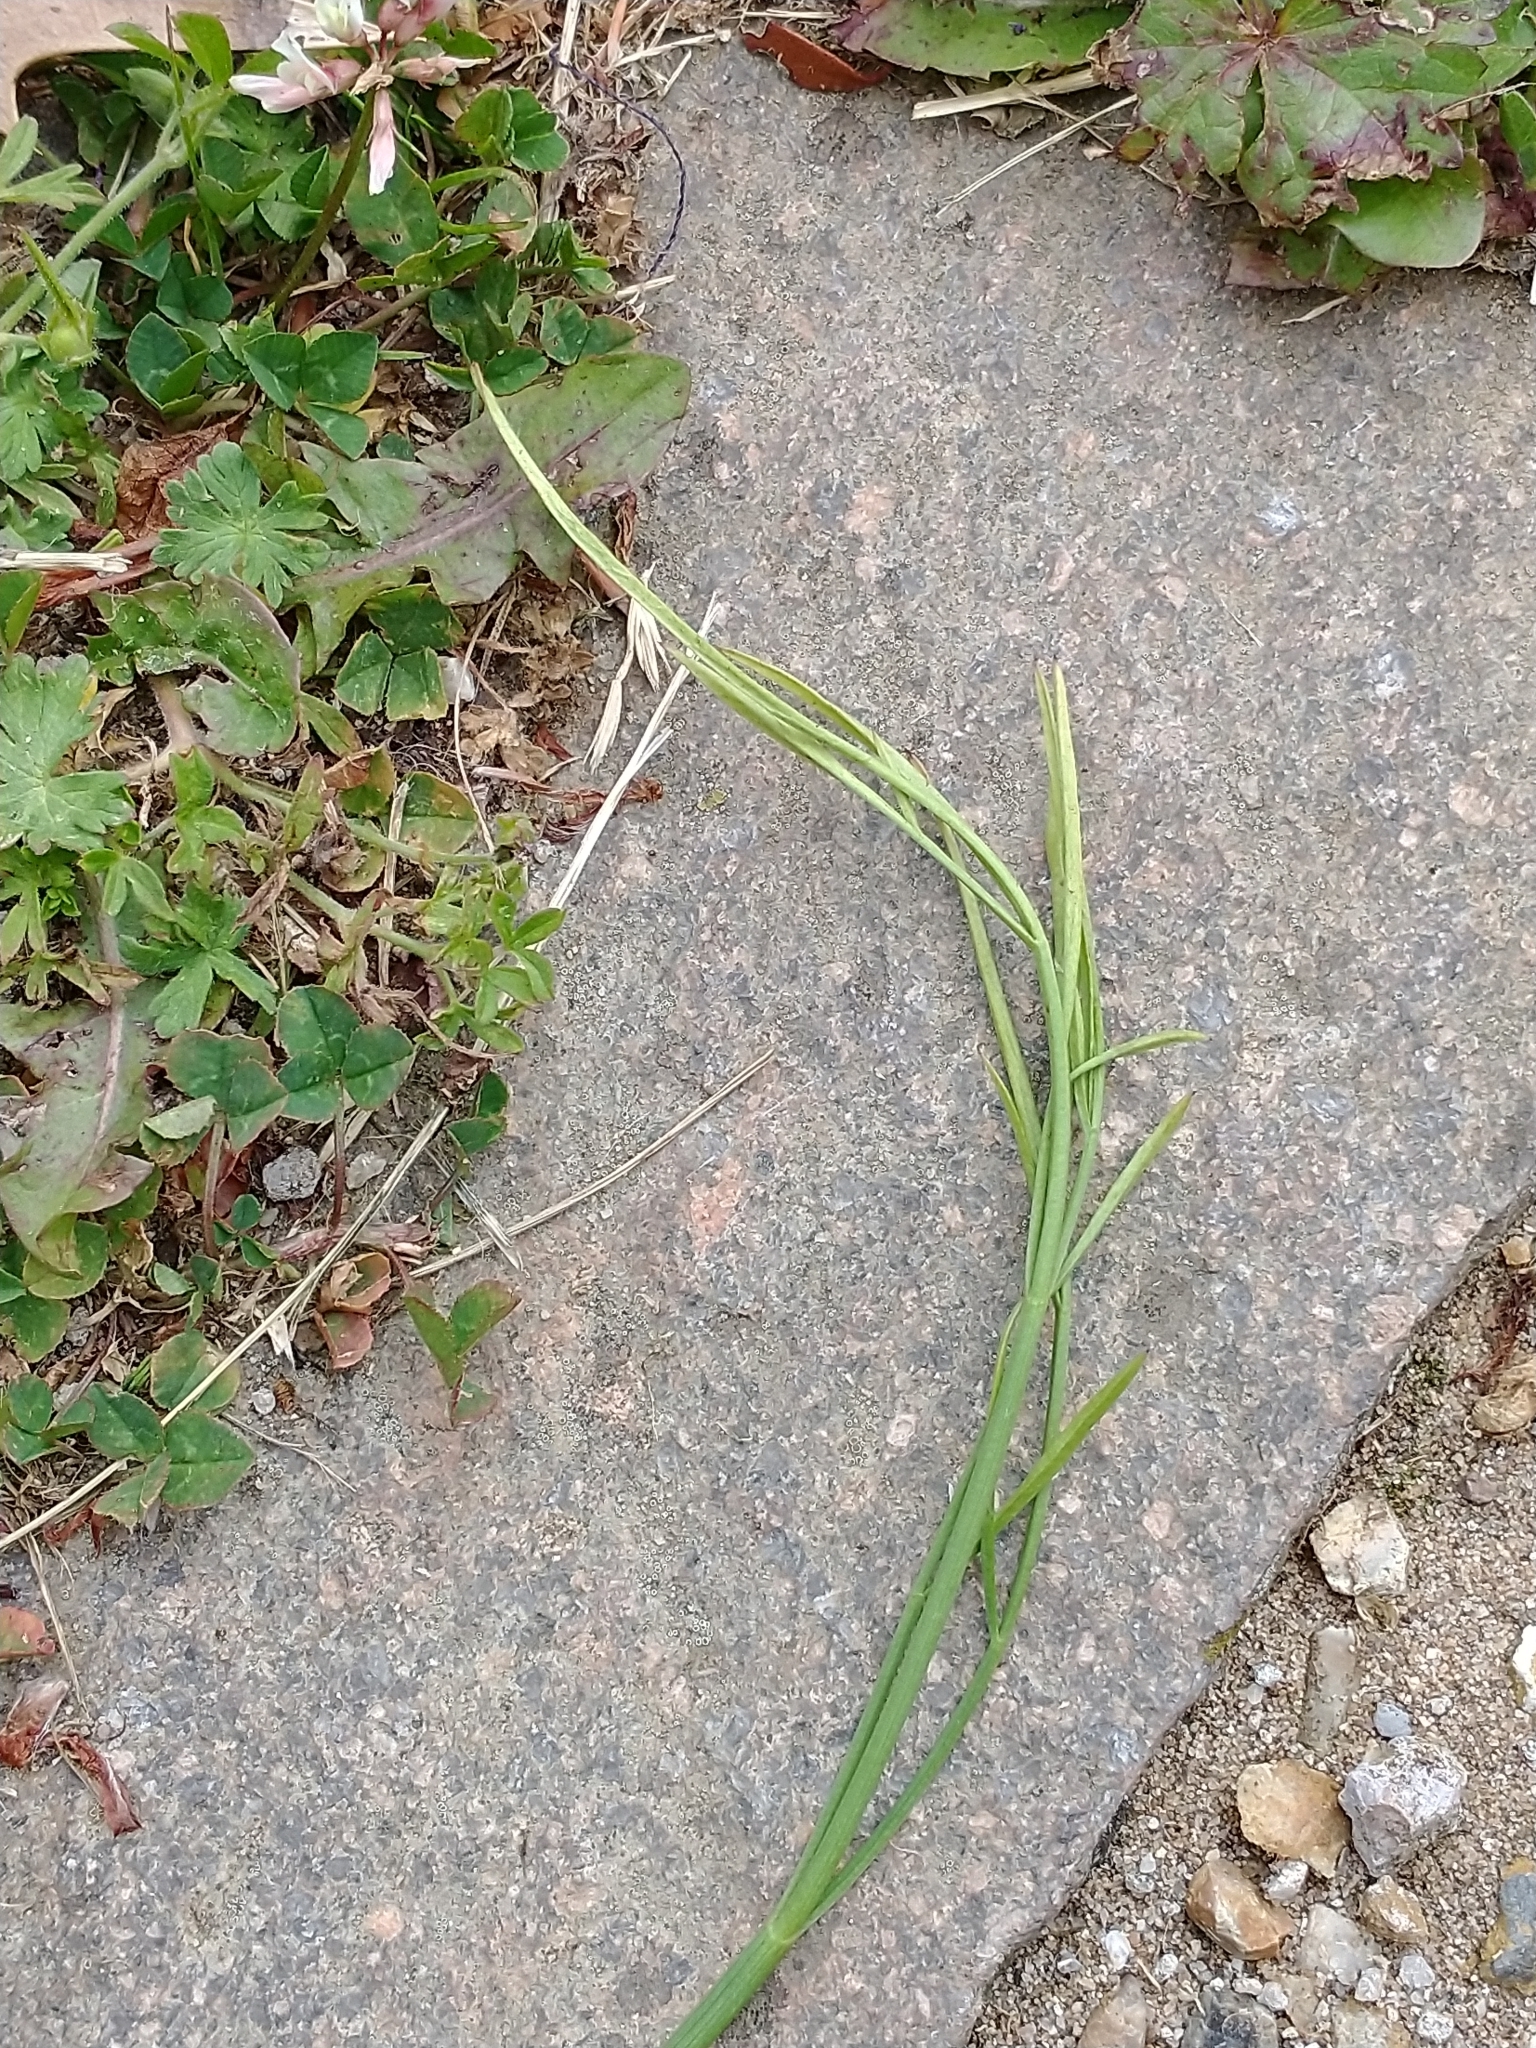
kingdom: Plantae
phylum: Tracheophyta
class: Magnoliopsida
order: Apiales
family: Apiaceae
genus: Oenanthe
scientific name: Oenanthe pimpinelloides
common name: Corky-fruited water-dropwort
